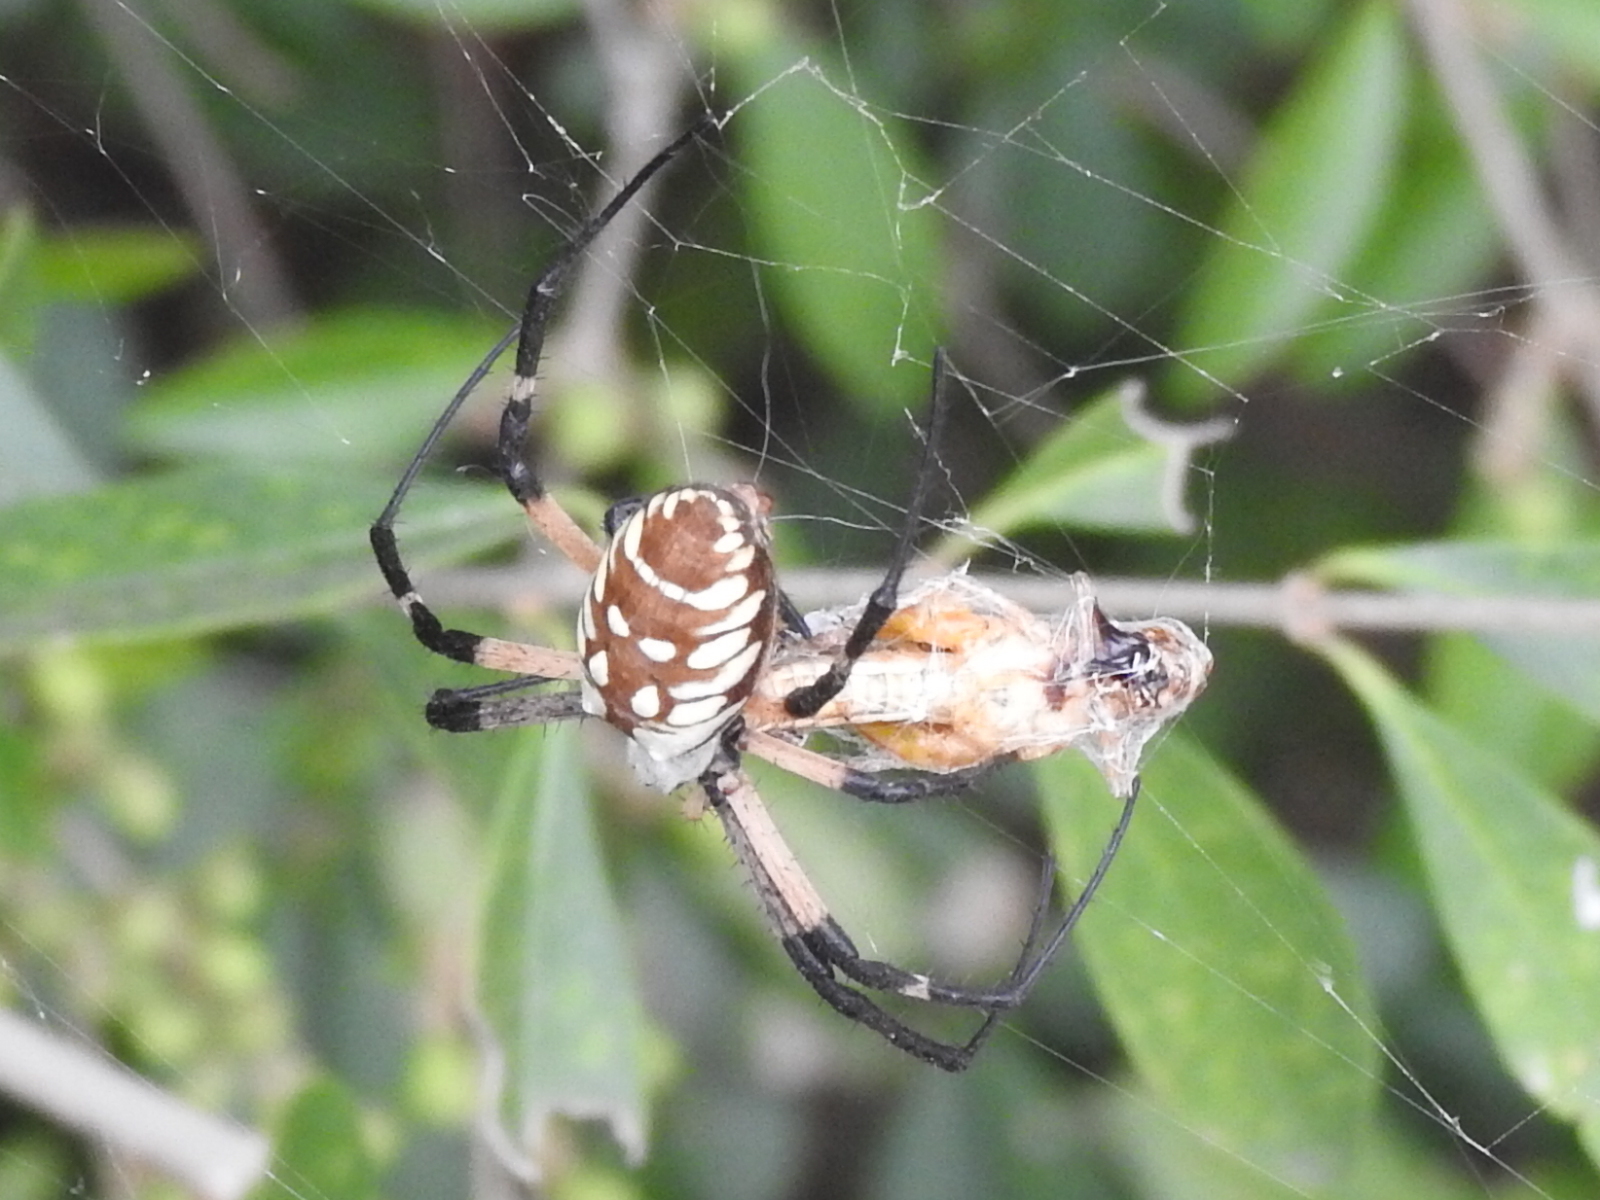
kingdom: Animalia
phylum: Arthropoda
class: Arachnida
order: Araneae
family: Araneidae
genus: Argiope
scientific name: Argiope aurantia
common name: Orb weavers
